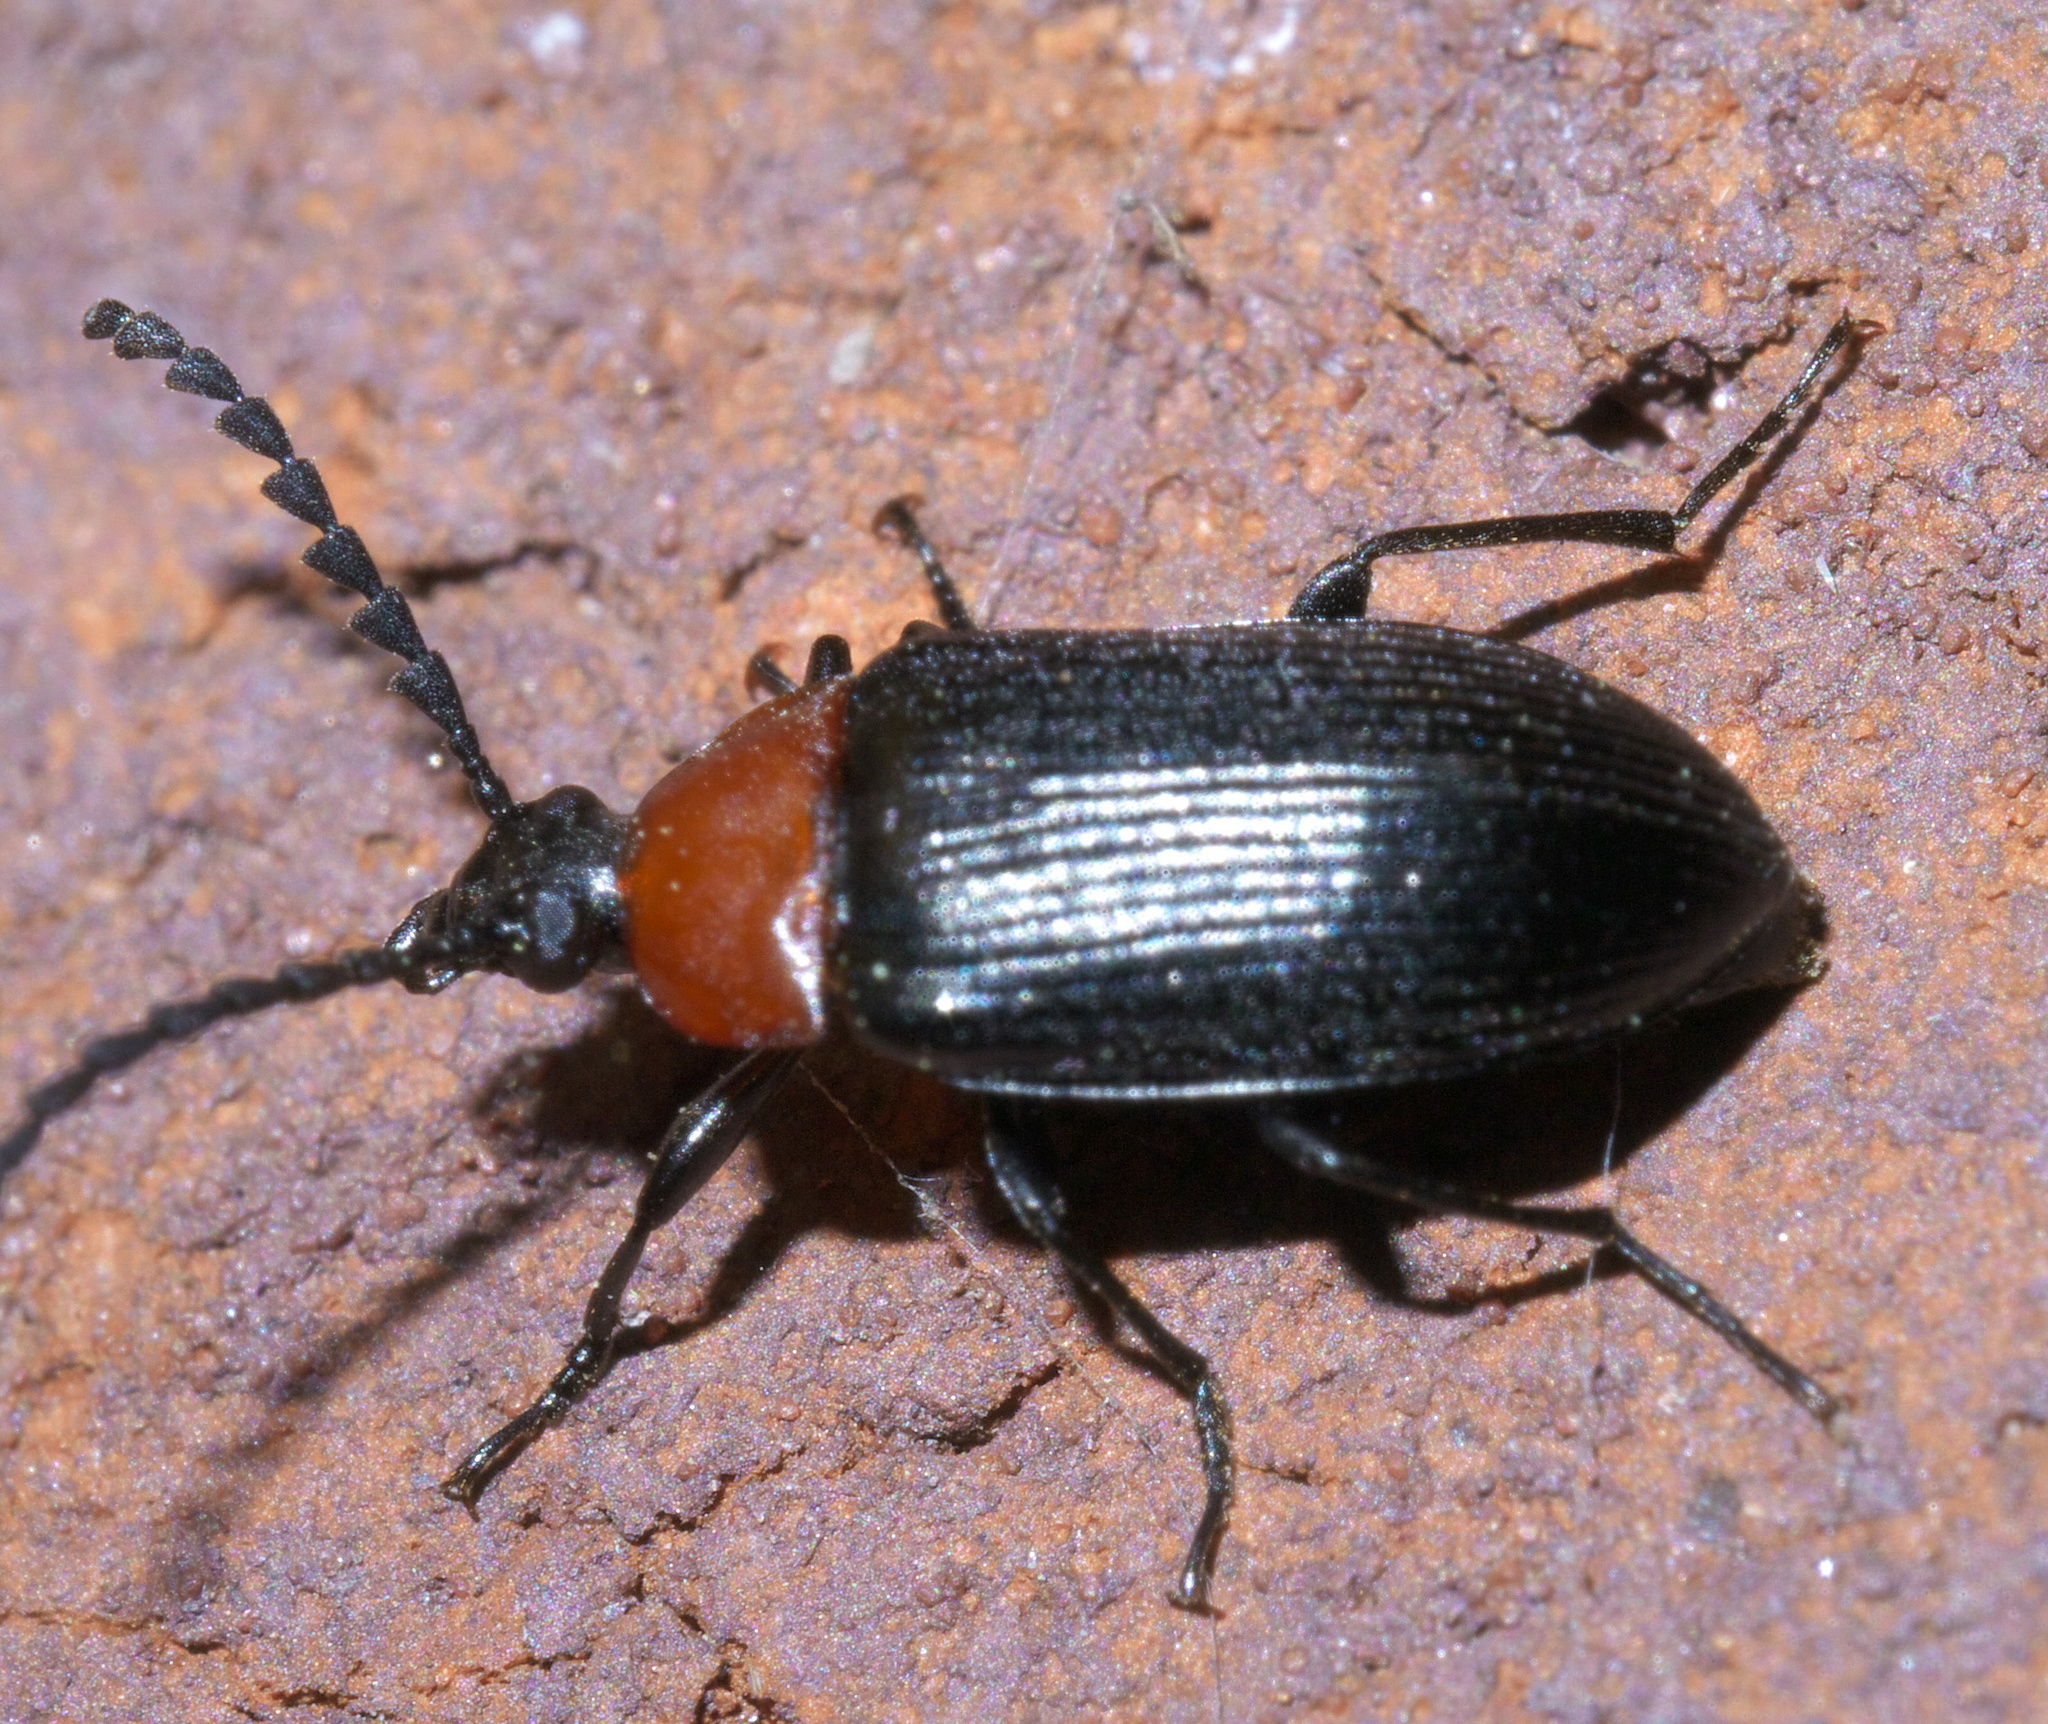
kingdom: Animalia
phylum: Arthropoda
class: Insecta
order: Coleoptera
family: Tenebrionidae
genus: Chromatia
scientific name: Chromatia amoena
